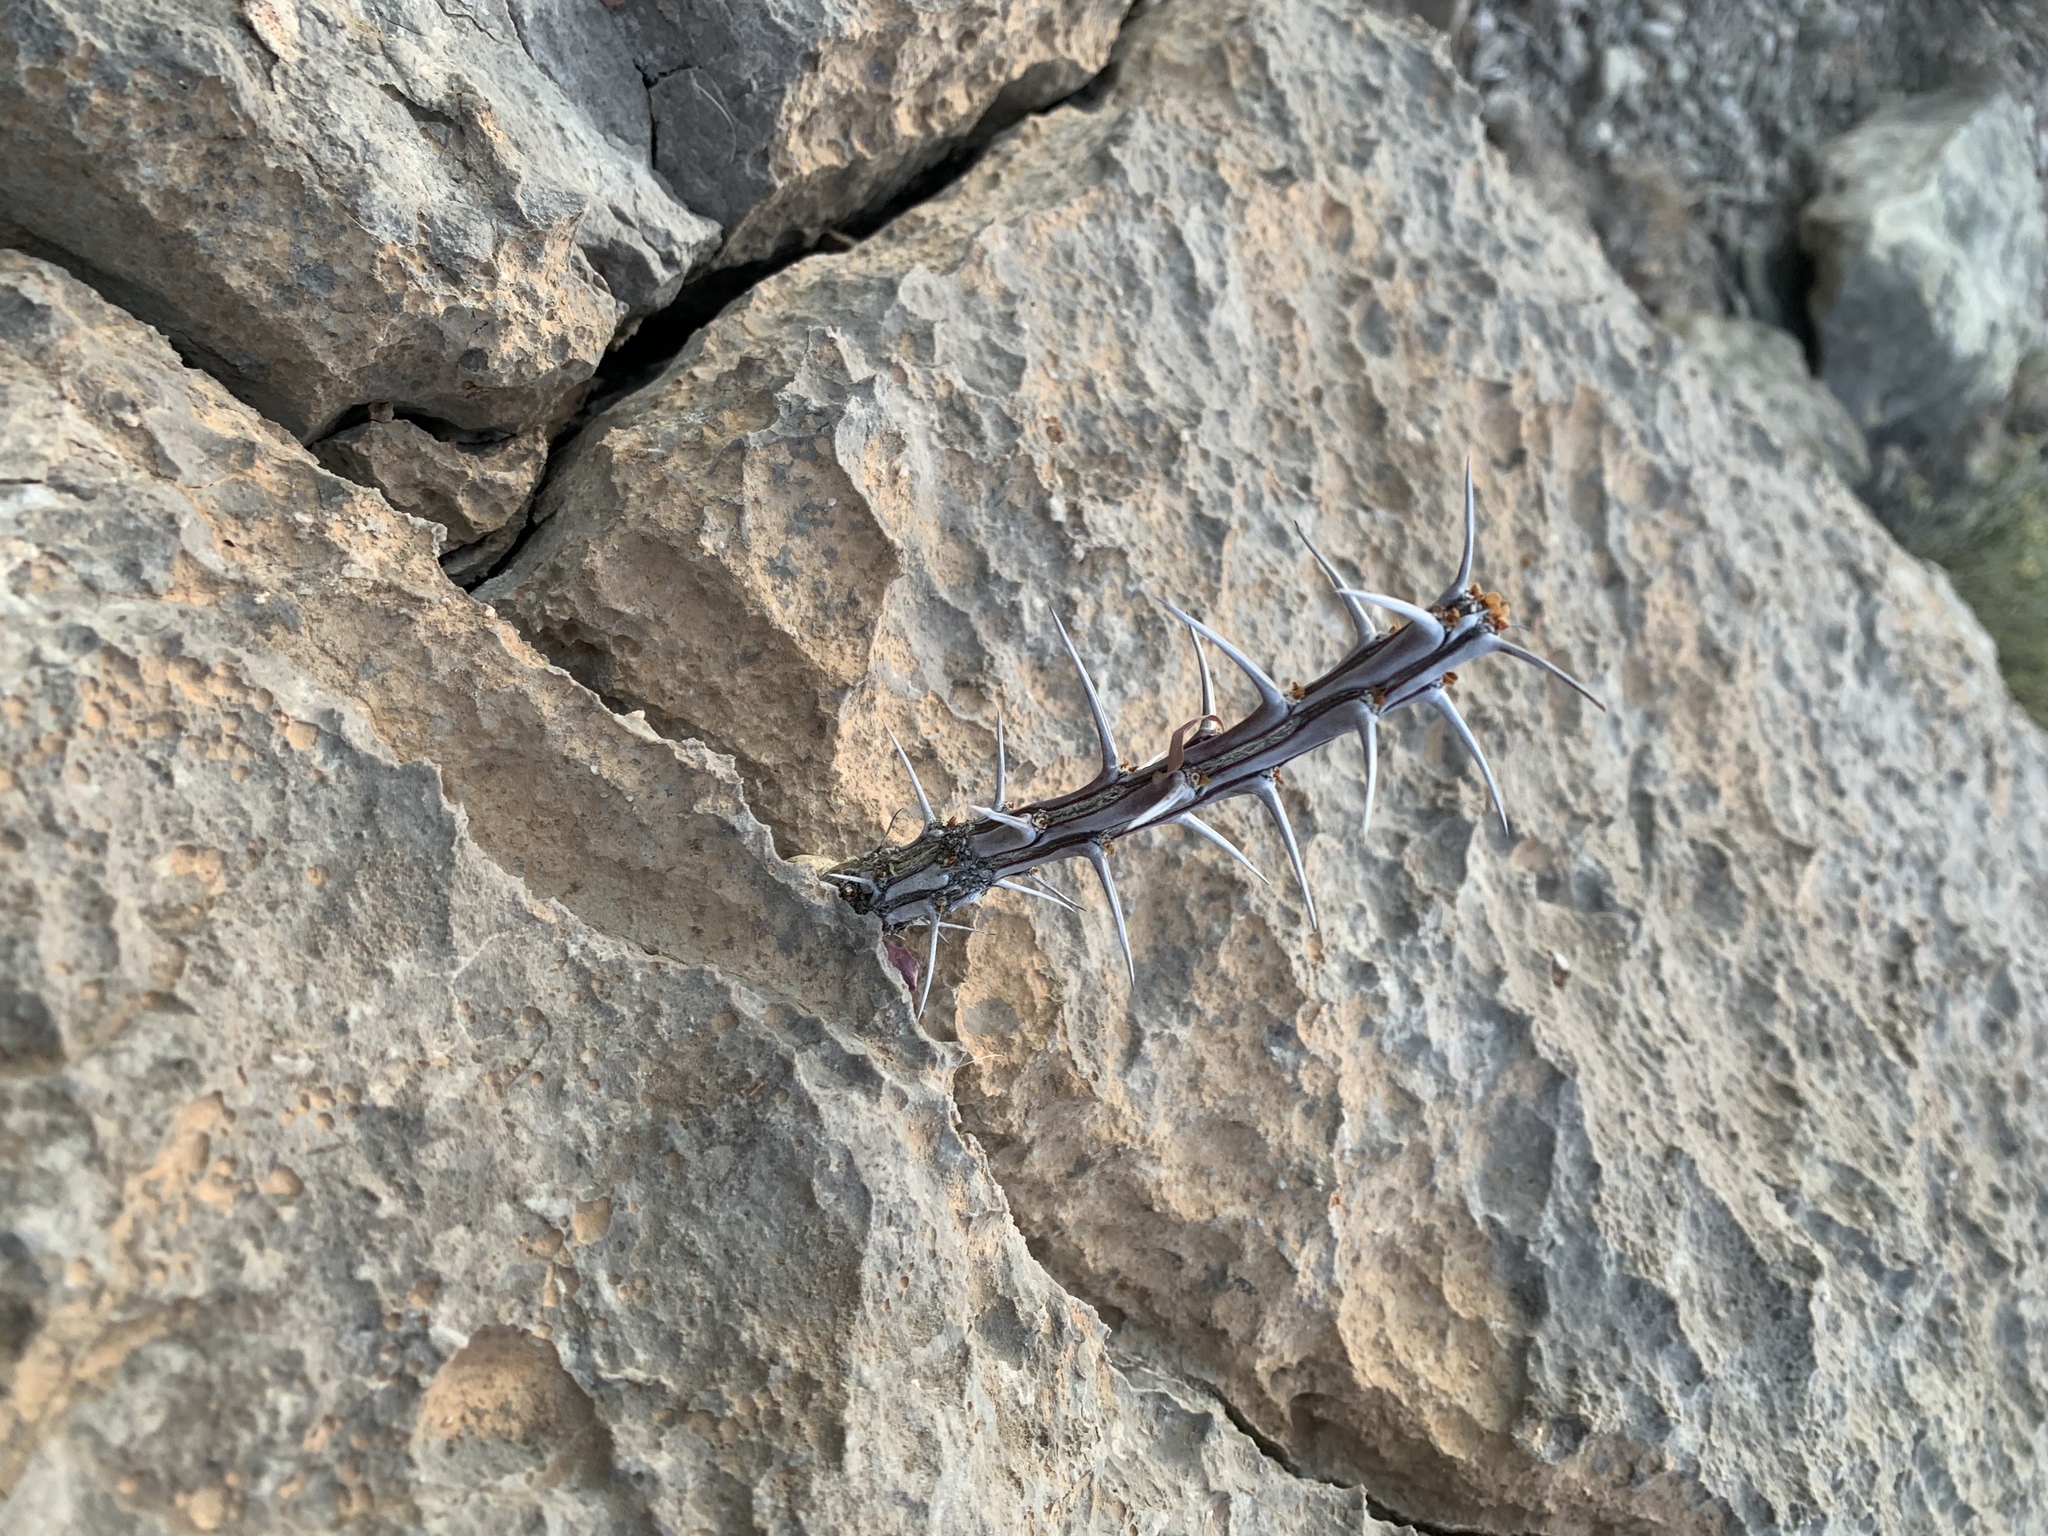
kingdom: Plantae
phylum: Tracheophyta
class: Magnoliopsida
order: Ericales
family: Fouquieriaceae
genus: Fouquieria
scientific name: Fouquieria splendens
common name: Vine-cactus
